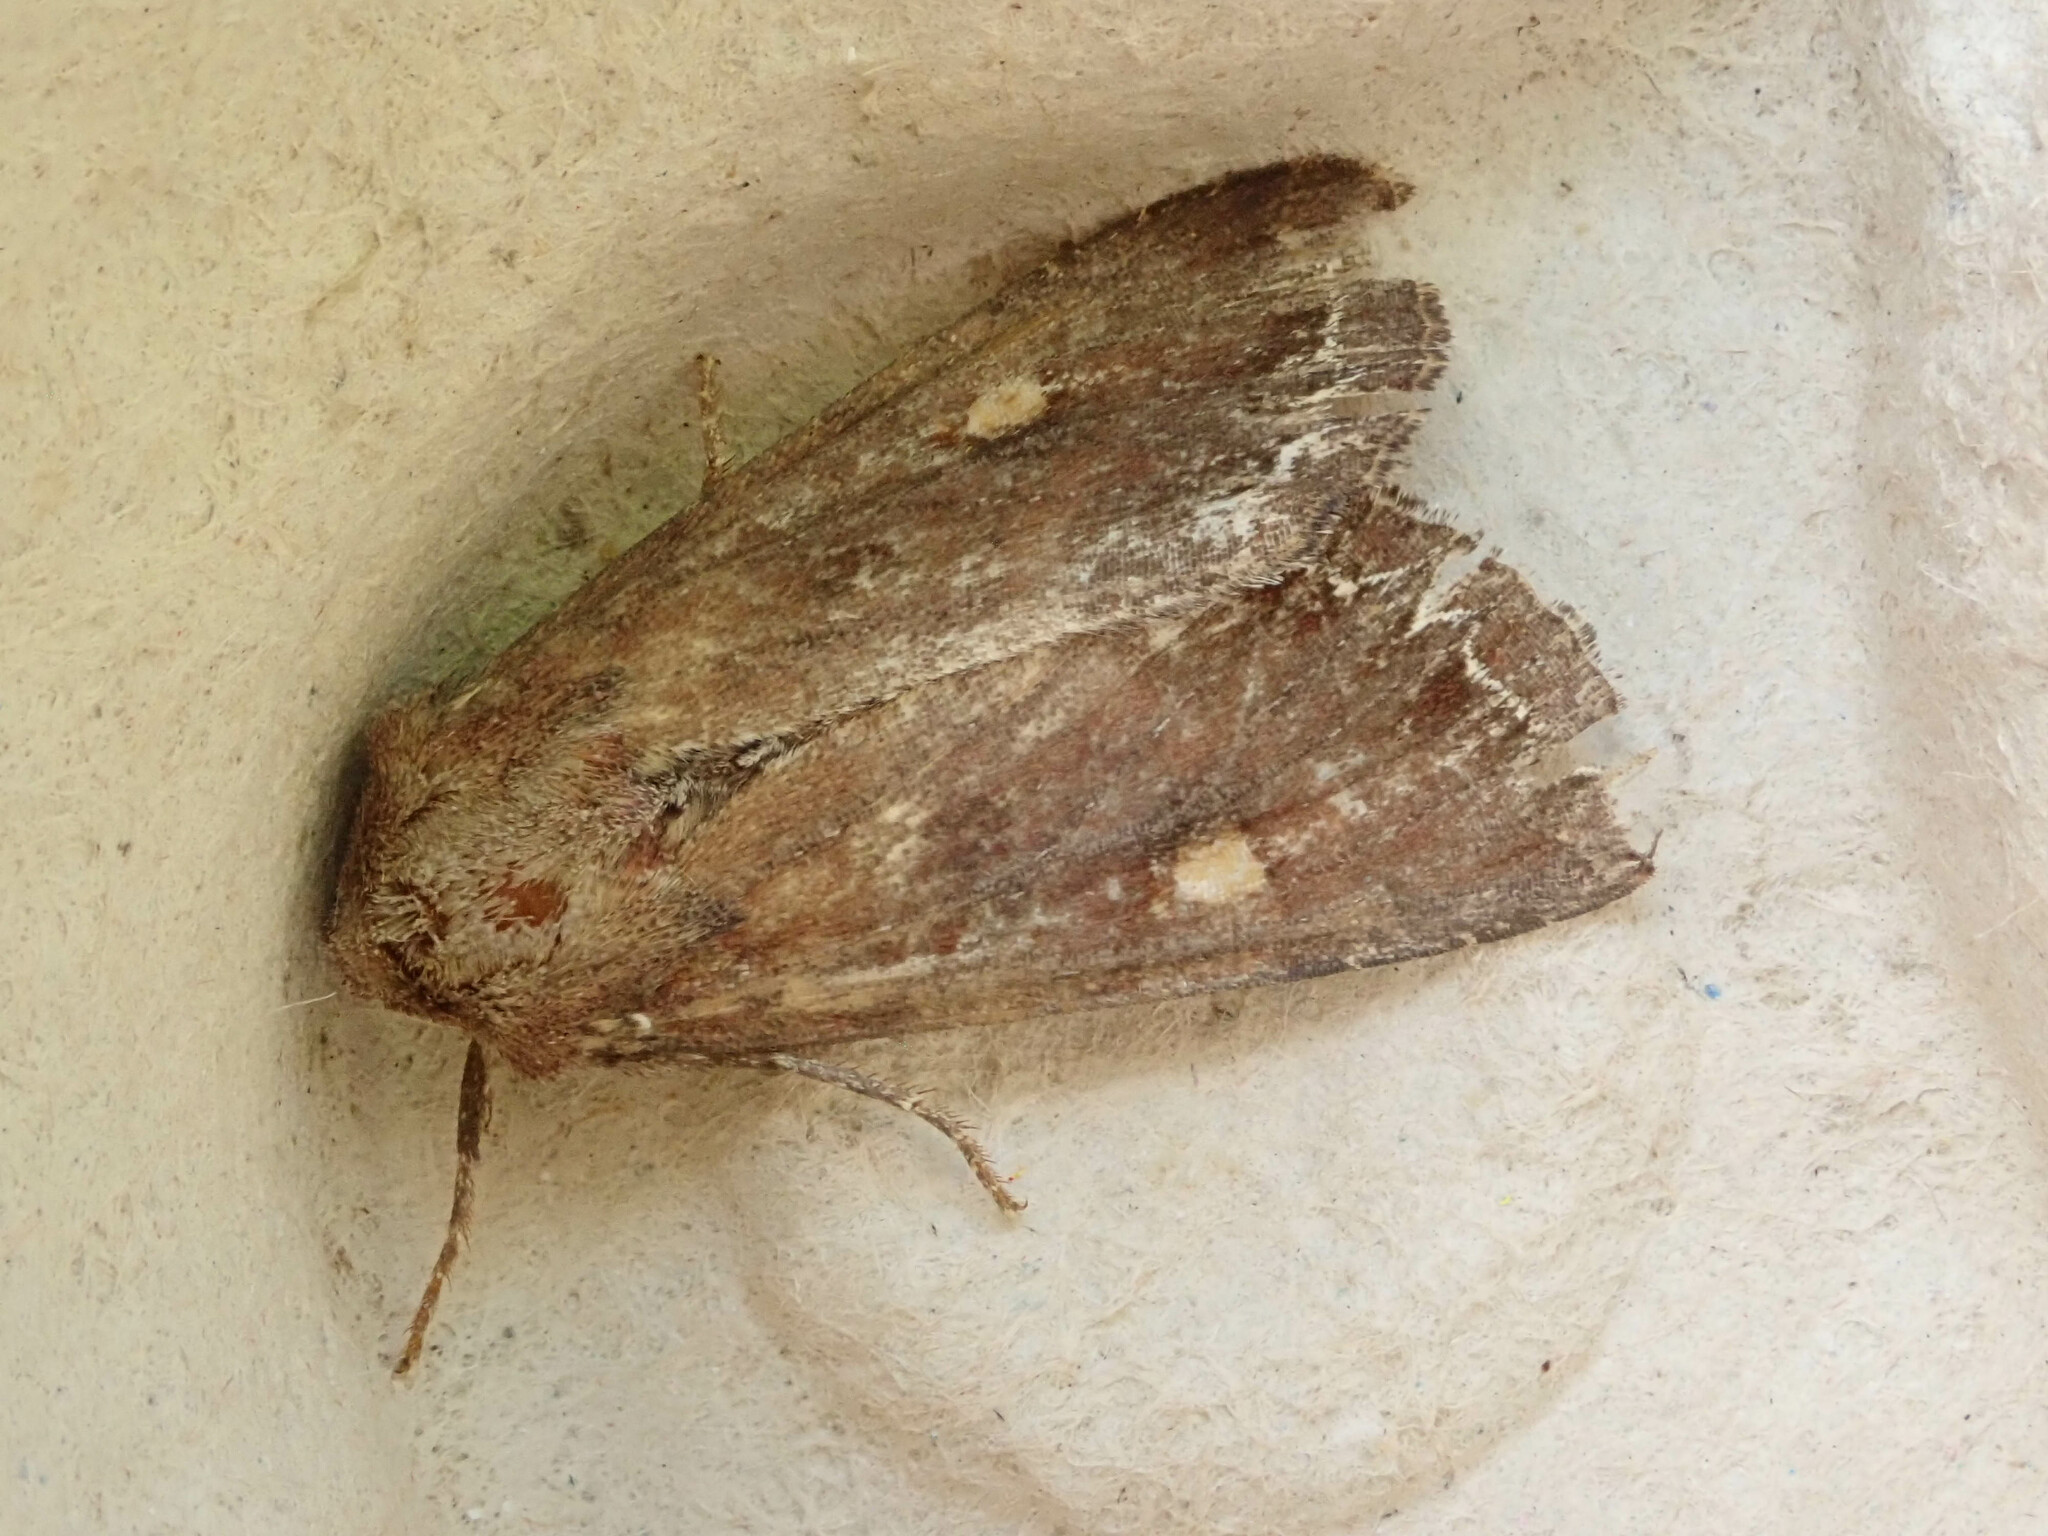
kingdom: Animalia
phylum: Arthropoda
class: Insecta
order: Lepidoptera
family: Noctuidae
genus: Lacanobia
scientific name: Lacanobia oleracea
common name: Bright-line brown-eye
